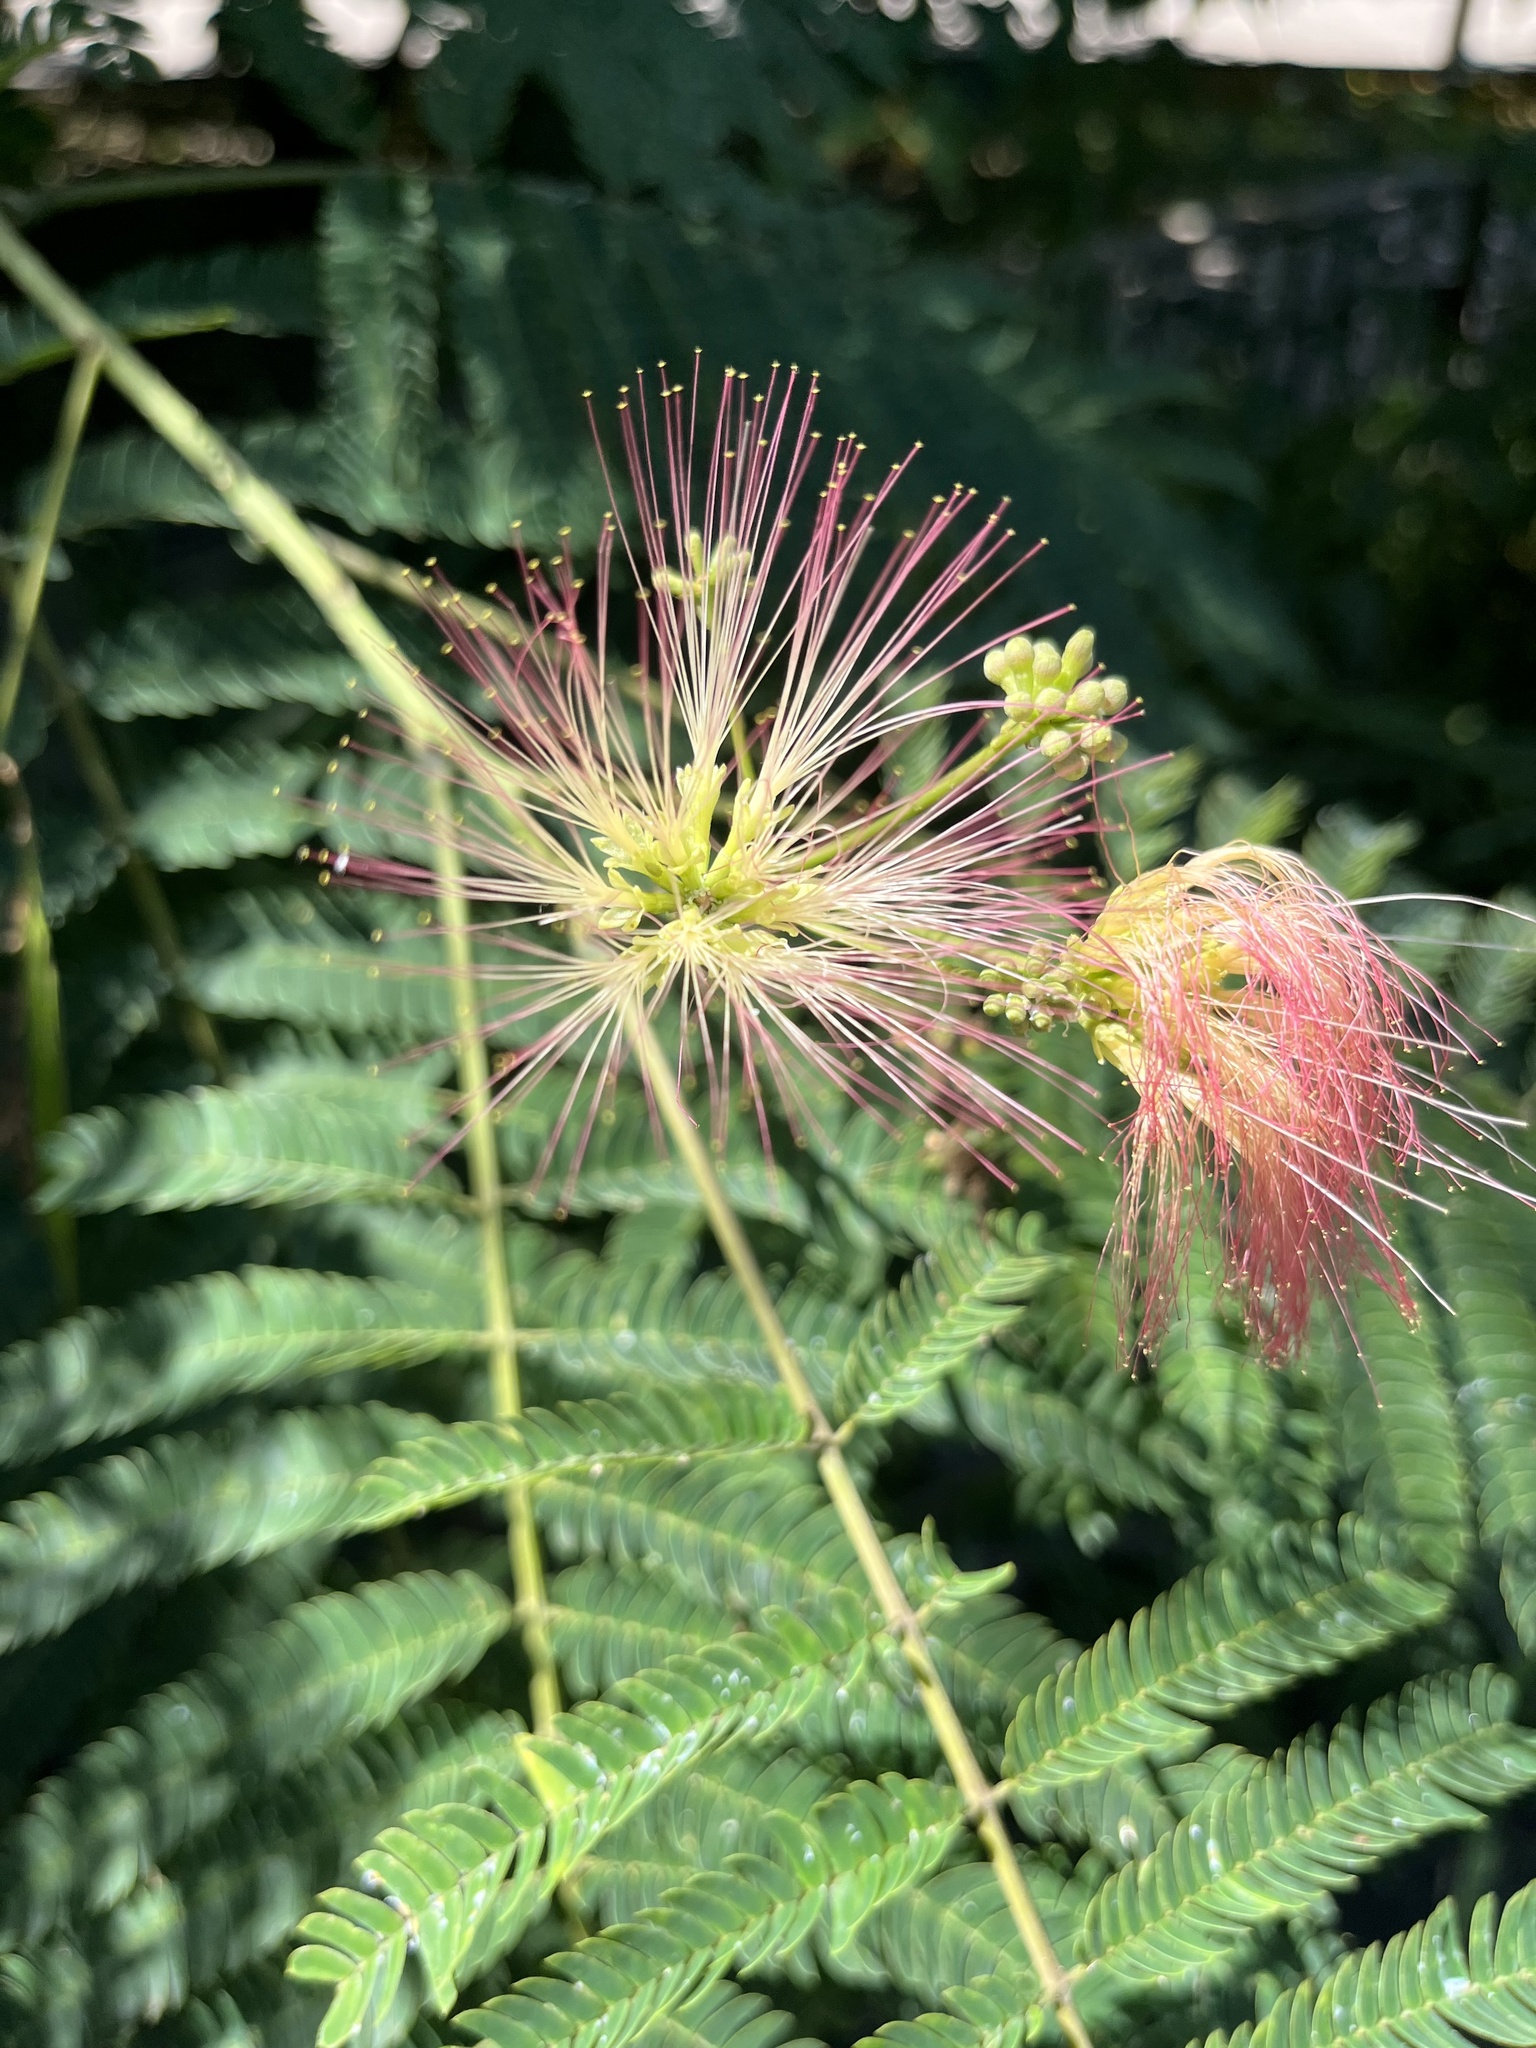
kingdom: Plantae
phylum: Tracheophyta
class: Magnoliopsida
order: Fabales
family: Fabaceae
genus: Albizia
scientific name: Albizia julibrissin
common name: Silktree
